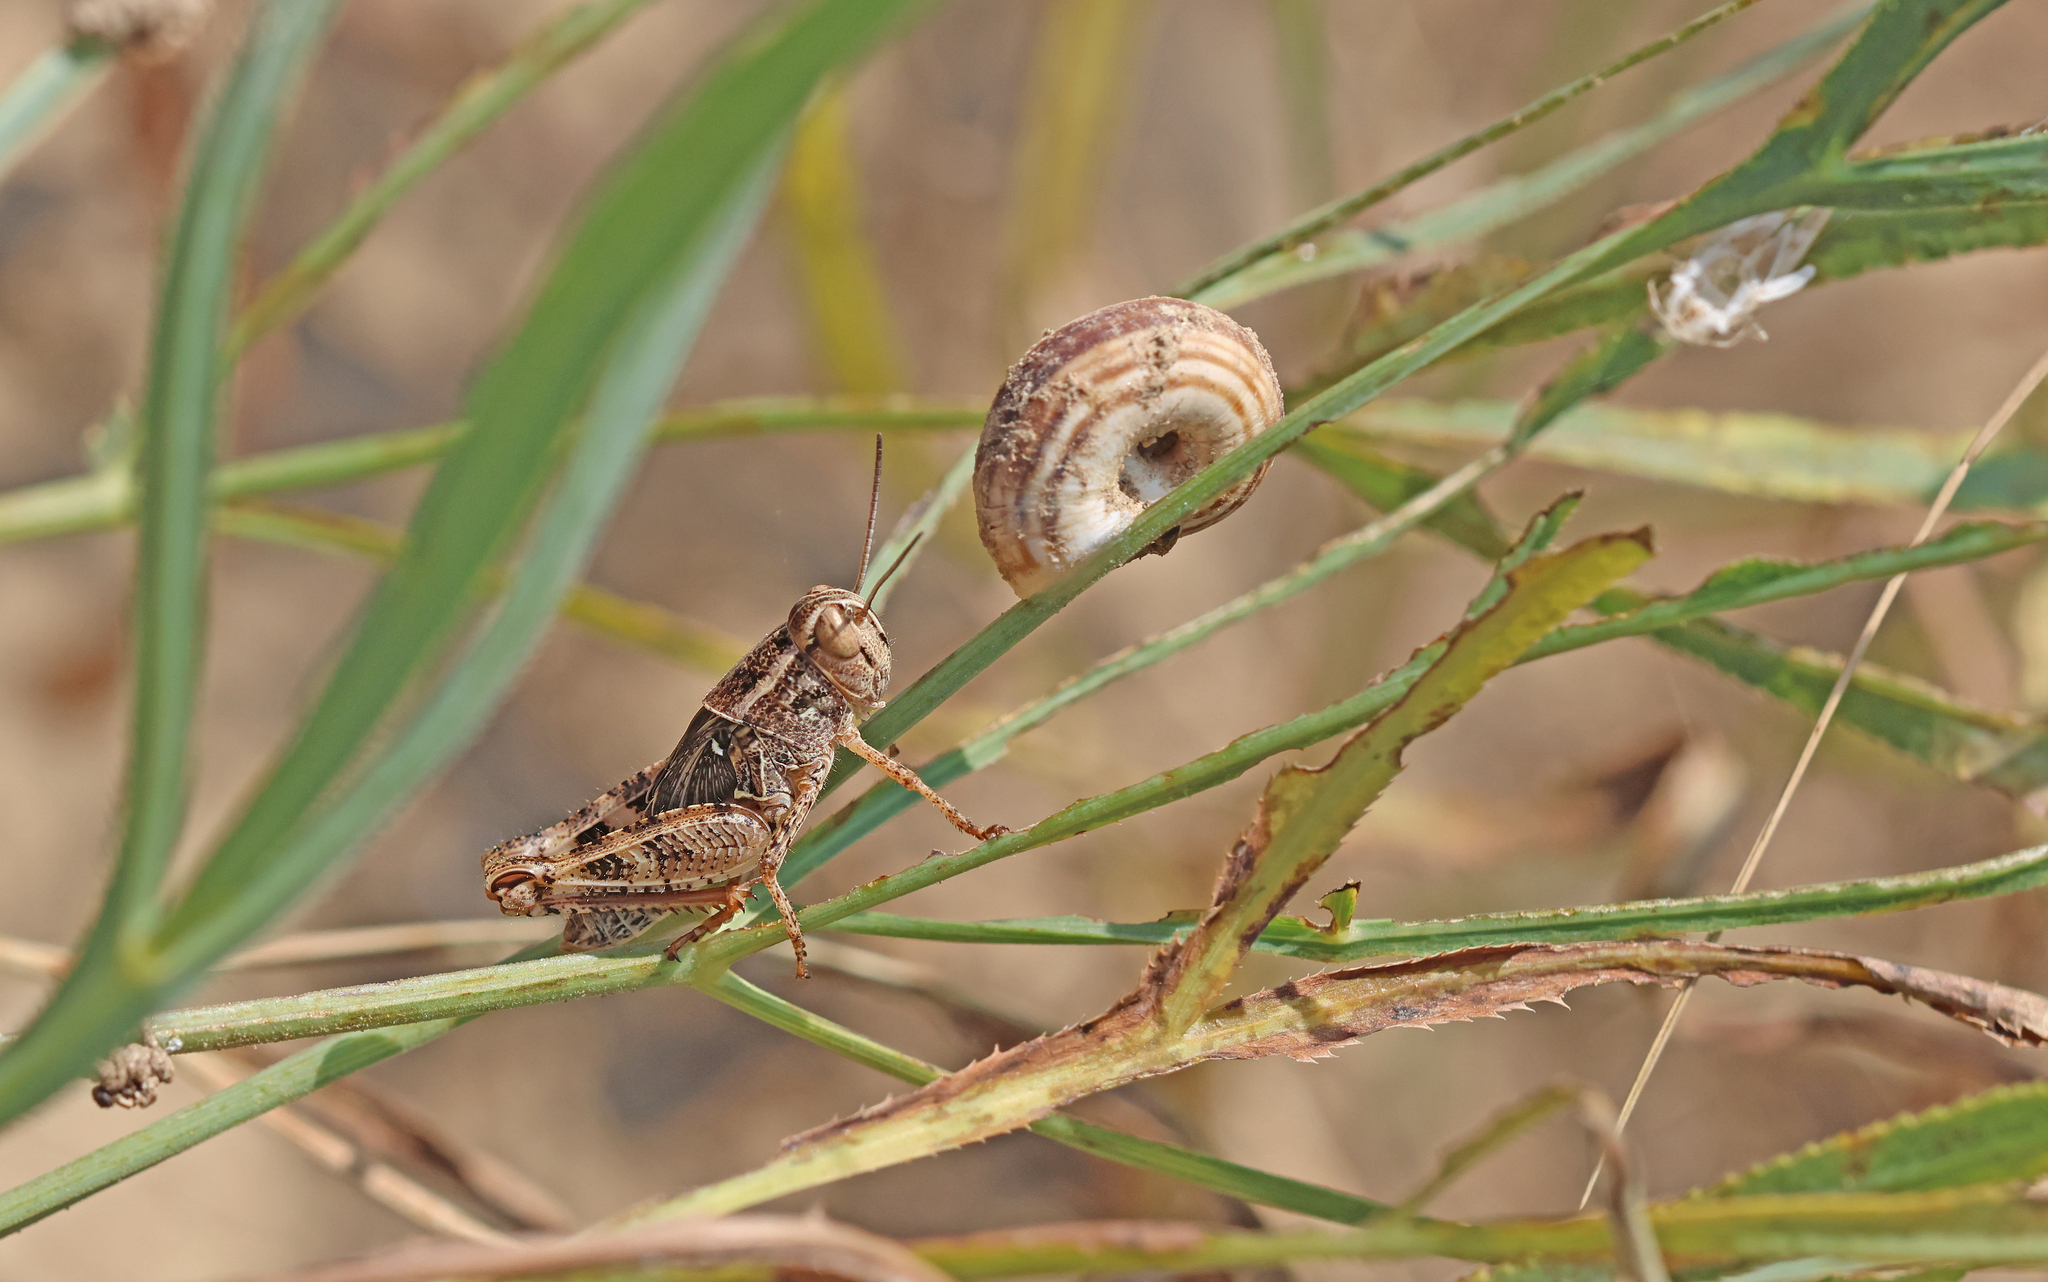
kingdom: Animalia
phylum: Arthropoda
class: Insecta
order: Orthoptera
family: Acrididae
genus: Calliptamus
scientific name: Calliptamus italicus
